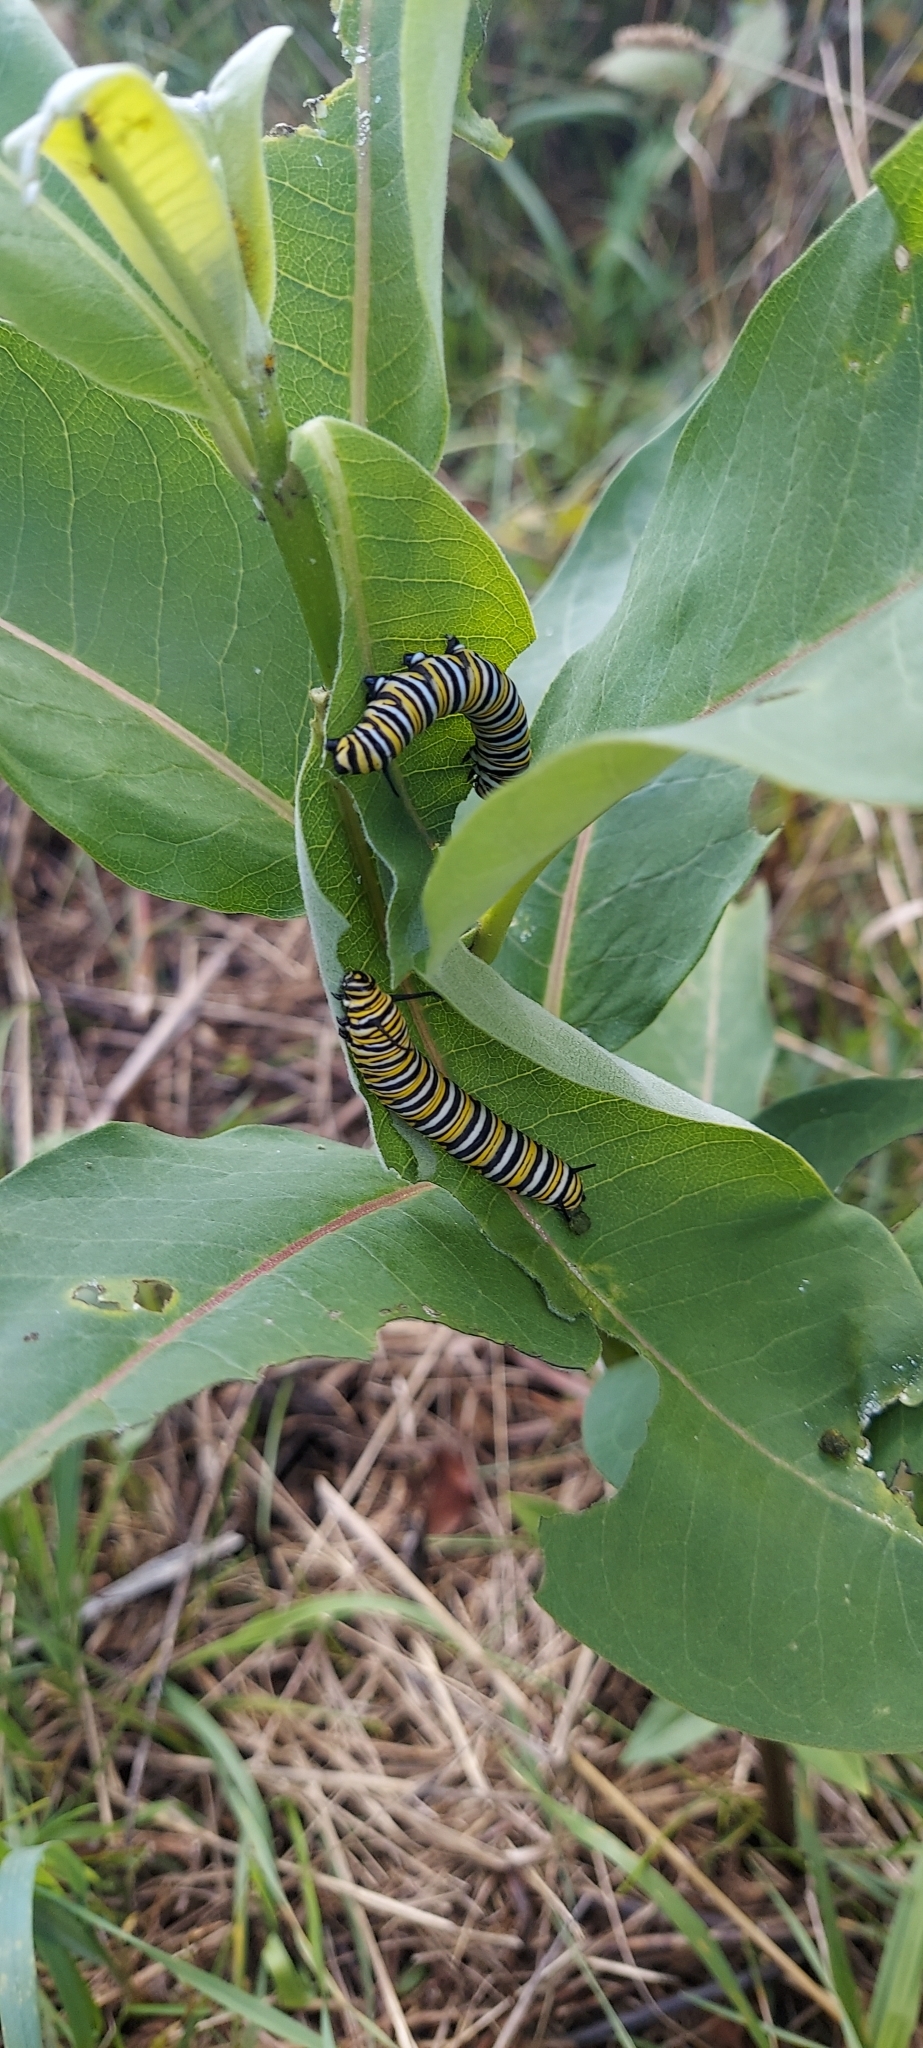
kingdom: Animalia
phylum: Arthropoda
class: Insecta
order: Lepidoptera
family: Nymphalidae
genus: Danaus
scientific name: Danaus plexippus
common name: Monarch
